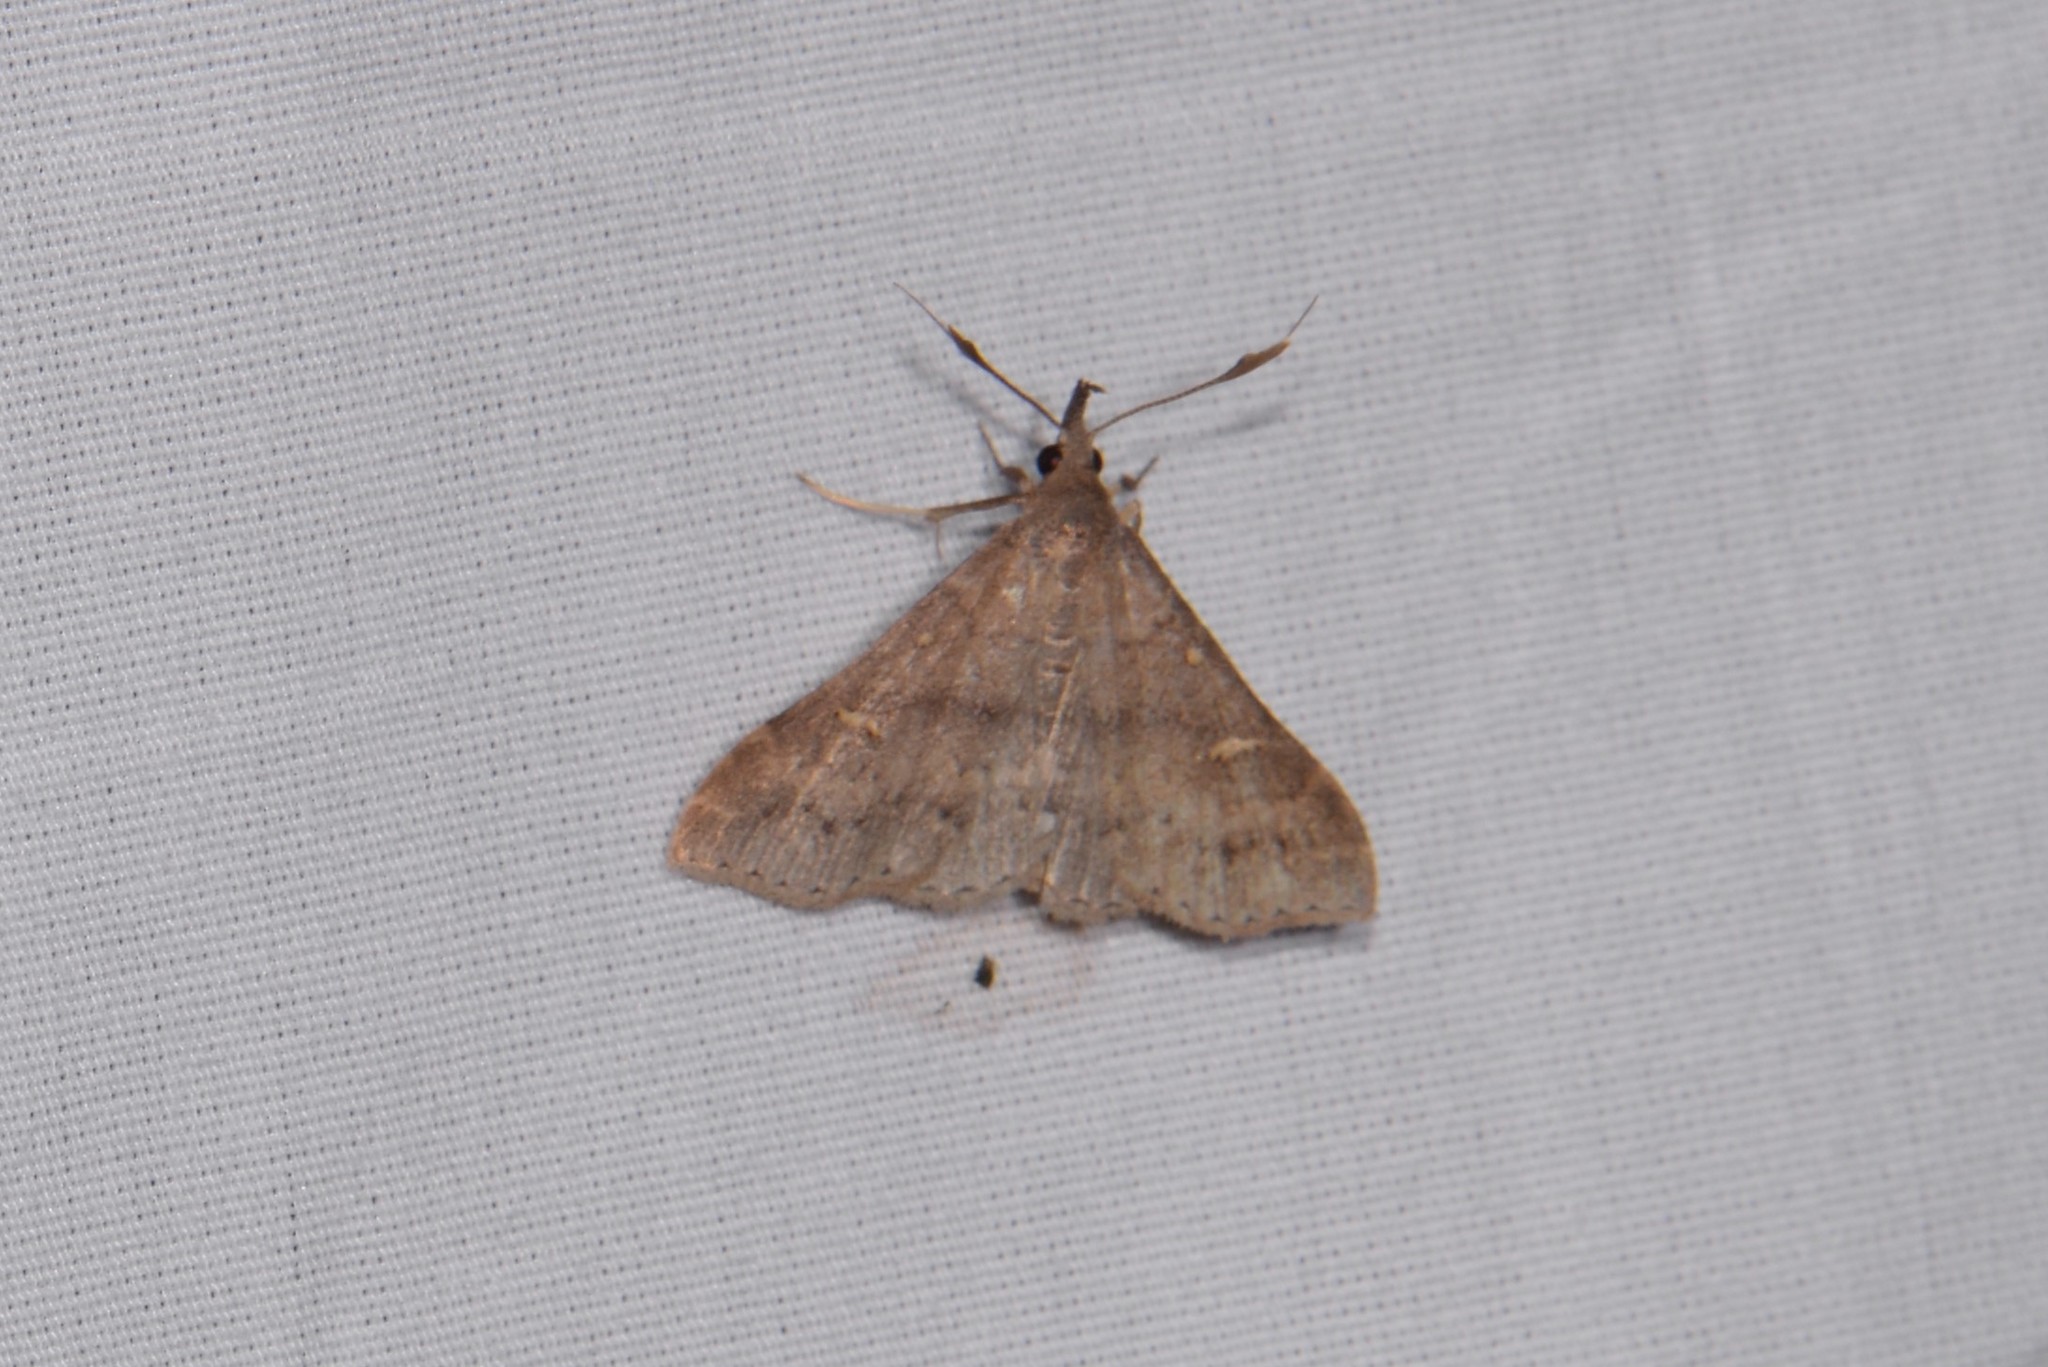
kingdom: Animalia
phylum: Arthropoda
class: Insecta
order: Lepidoptera
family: Erebidae
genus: Renia
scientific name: Renia adspergillus
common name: Speckled renia moth
